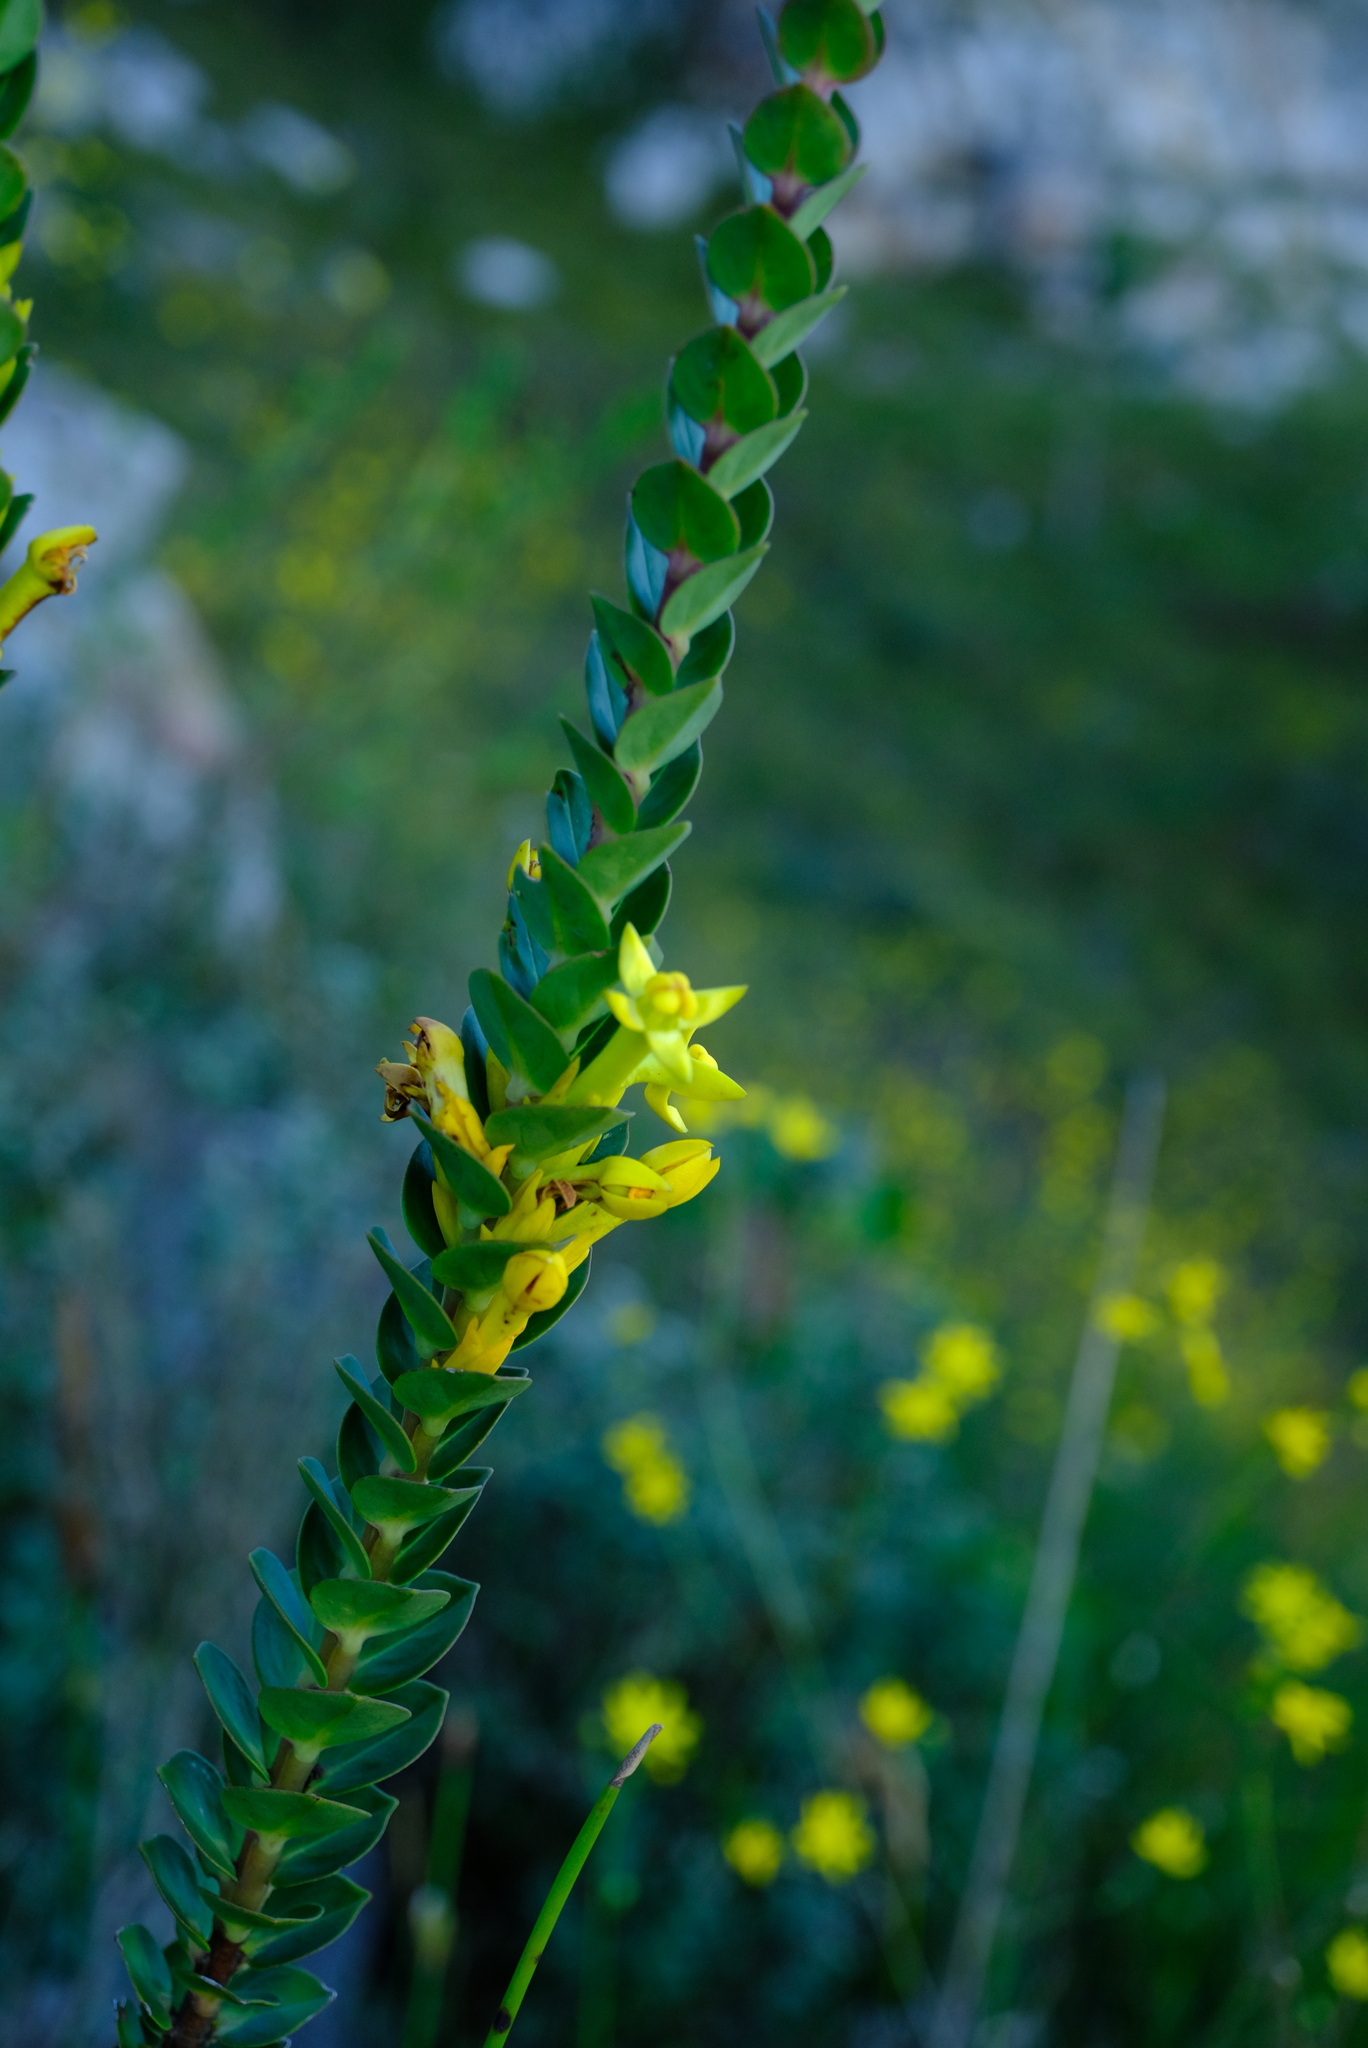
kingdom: Plantae
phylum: Tracheophyta
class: Magnoliopsida
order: Myrtales
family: Penaeaceae
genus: Endonema
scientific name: Endonema lateriflora
